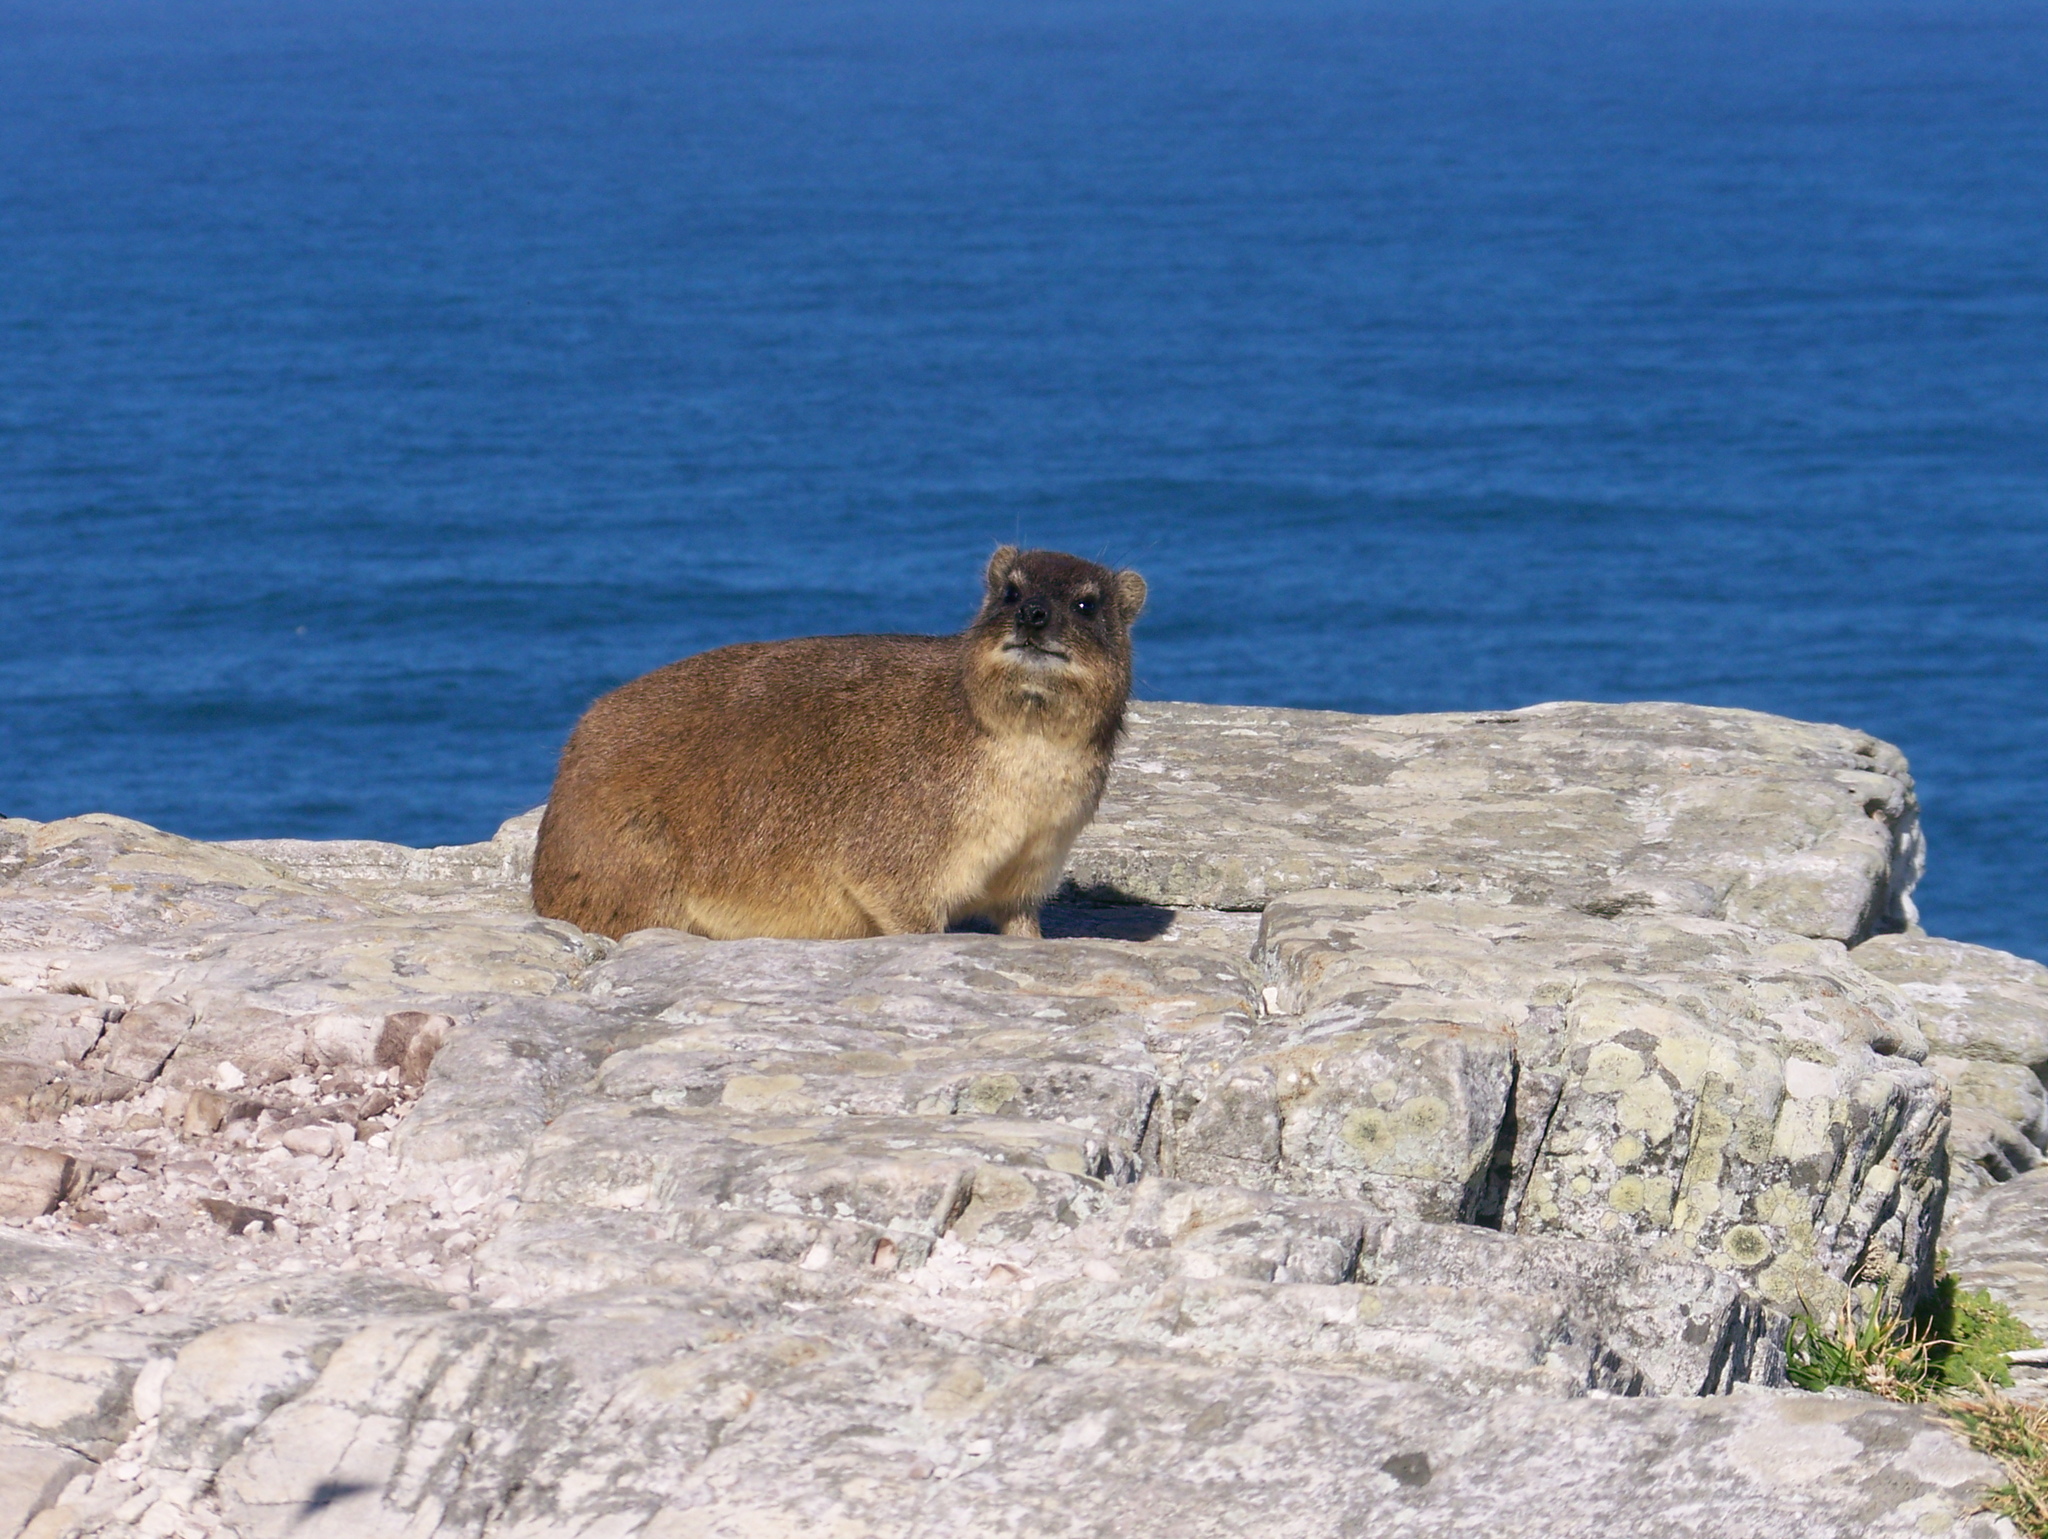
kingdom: Animalia
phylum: Chordata
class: Mammalia
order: Hyracoidea
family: Procaviidae
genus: Procavia
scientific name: Procavia capensis
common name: Rock hyrax
